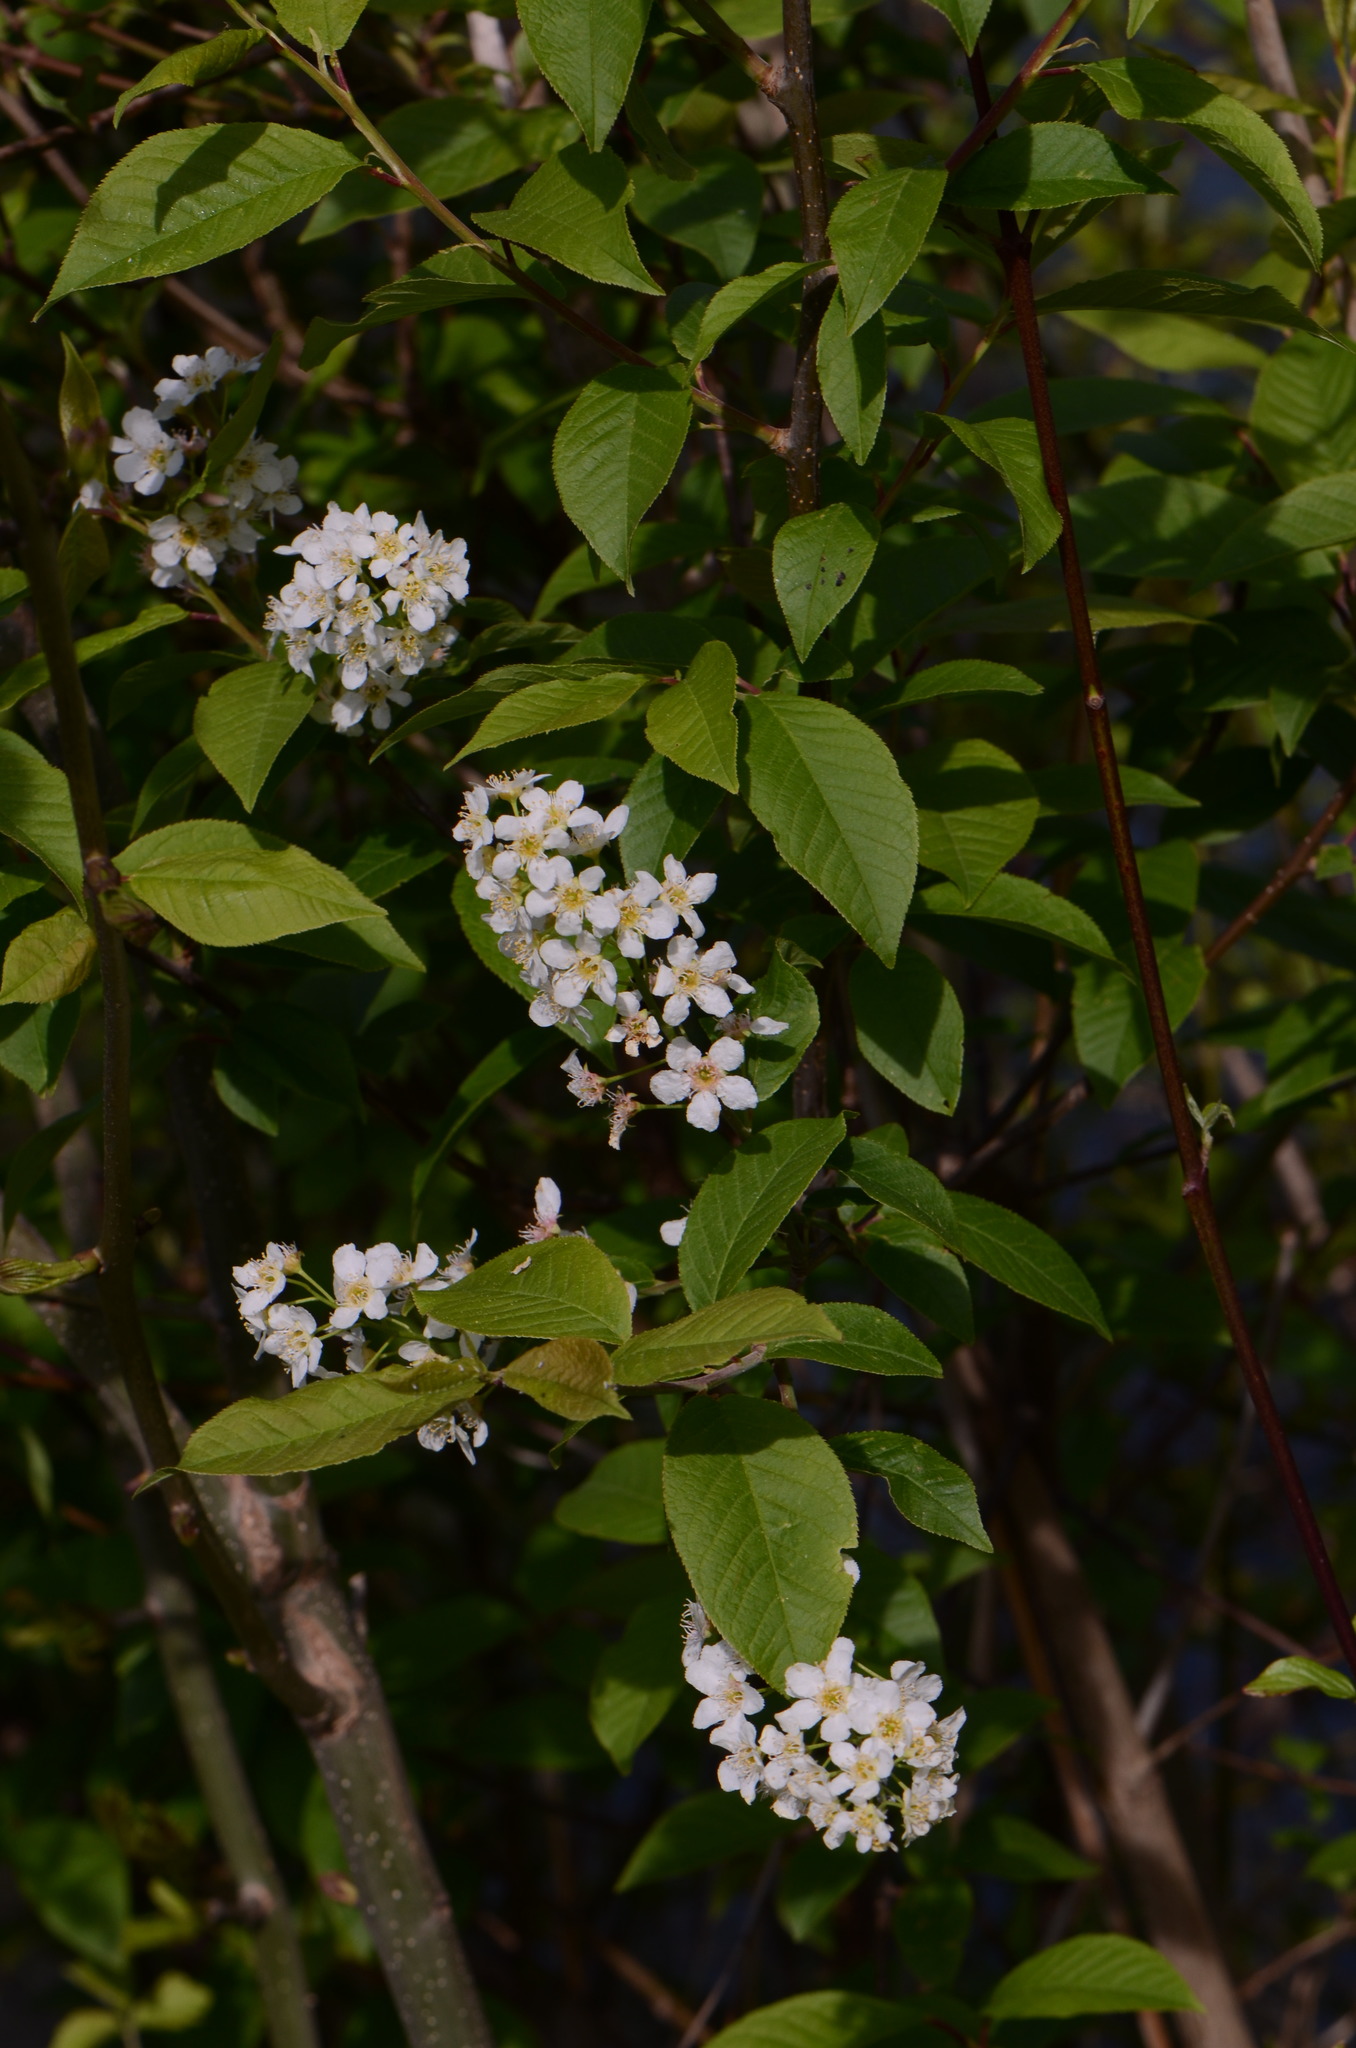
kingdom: Plantae
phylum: Tracheophyta
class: Magnoliopsida
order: Rosales
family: Rosaceae
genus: Prunus
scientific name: Prunus padus
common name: Bird cherry
